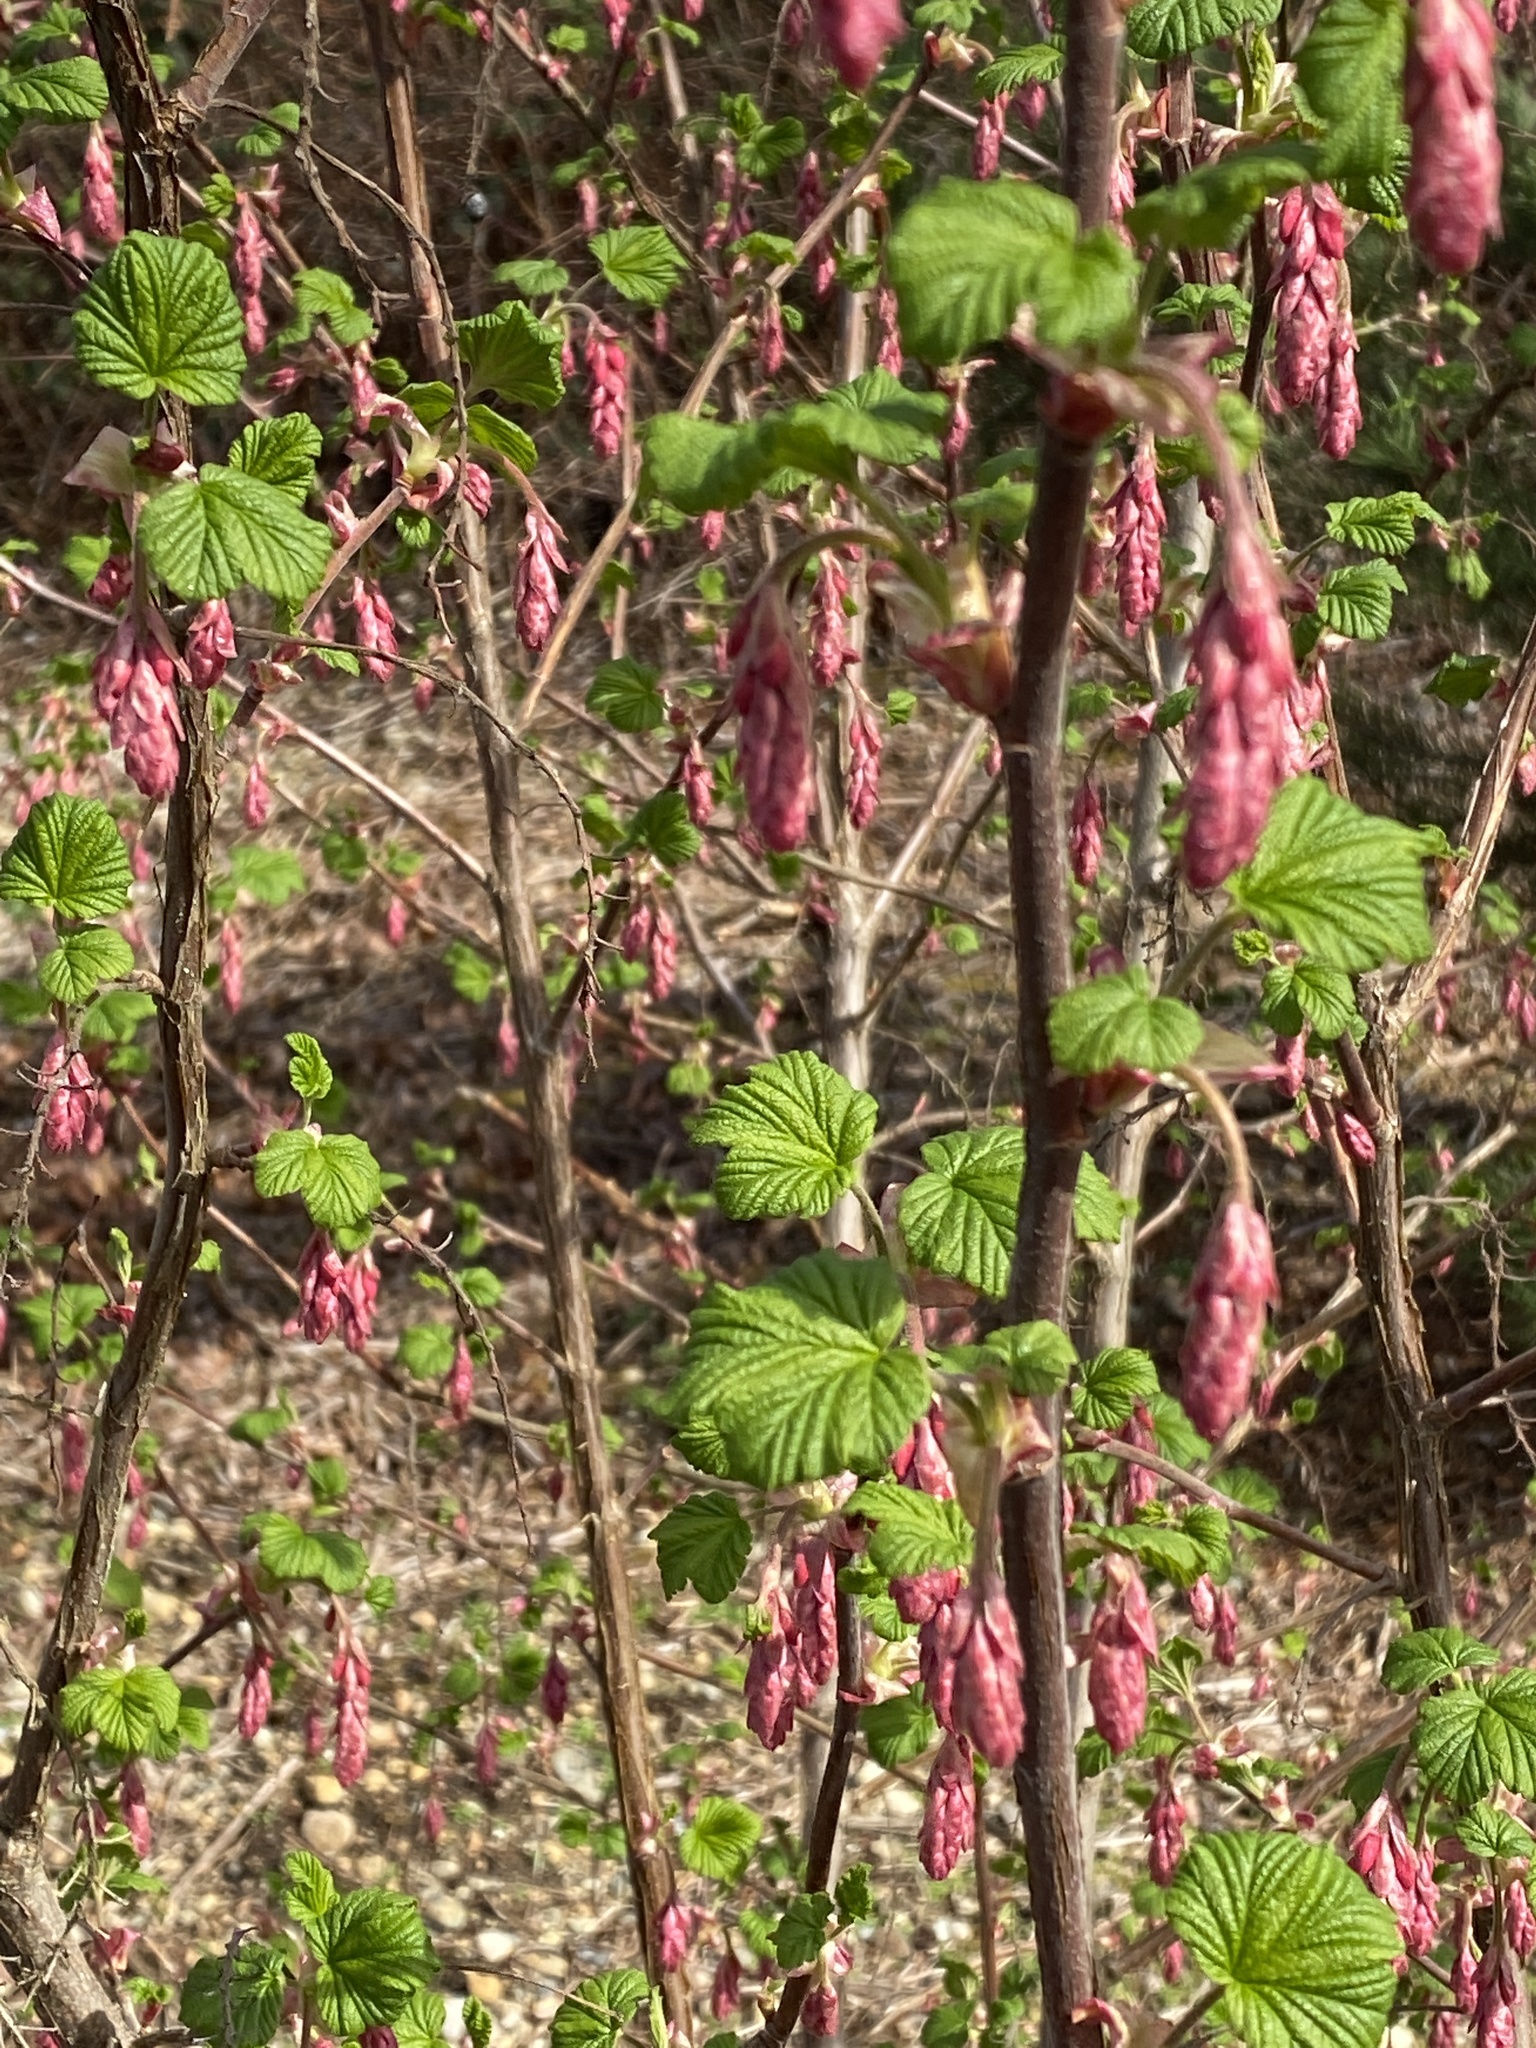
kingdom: Plantae
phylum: Tracheophyta
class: Magnoliopsida
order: Saxifragales
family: Grossulariaceae
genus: Ribes
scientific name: Ribes sanguineum
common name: Flowering currant
